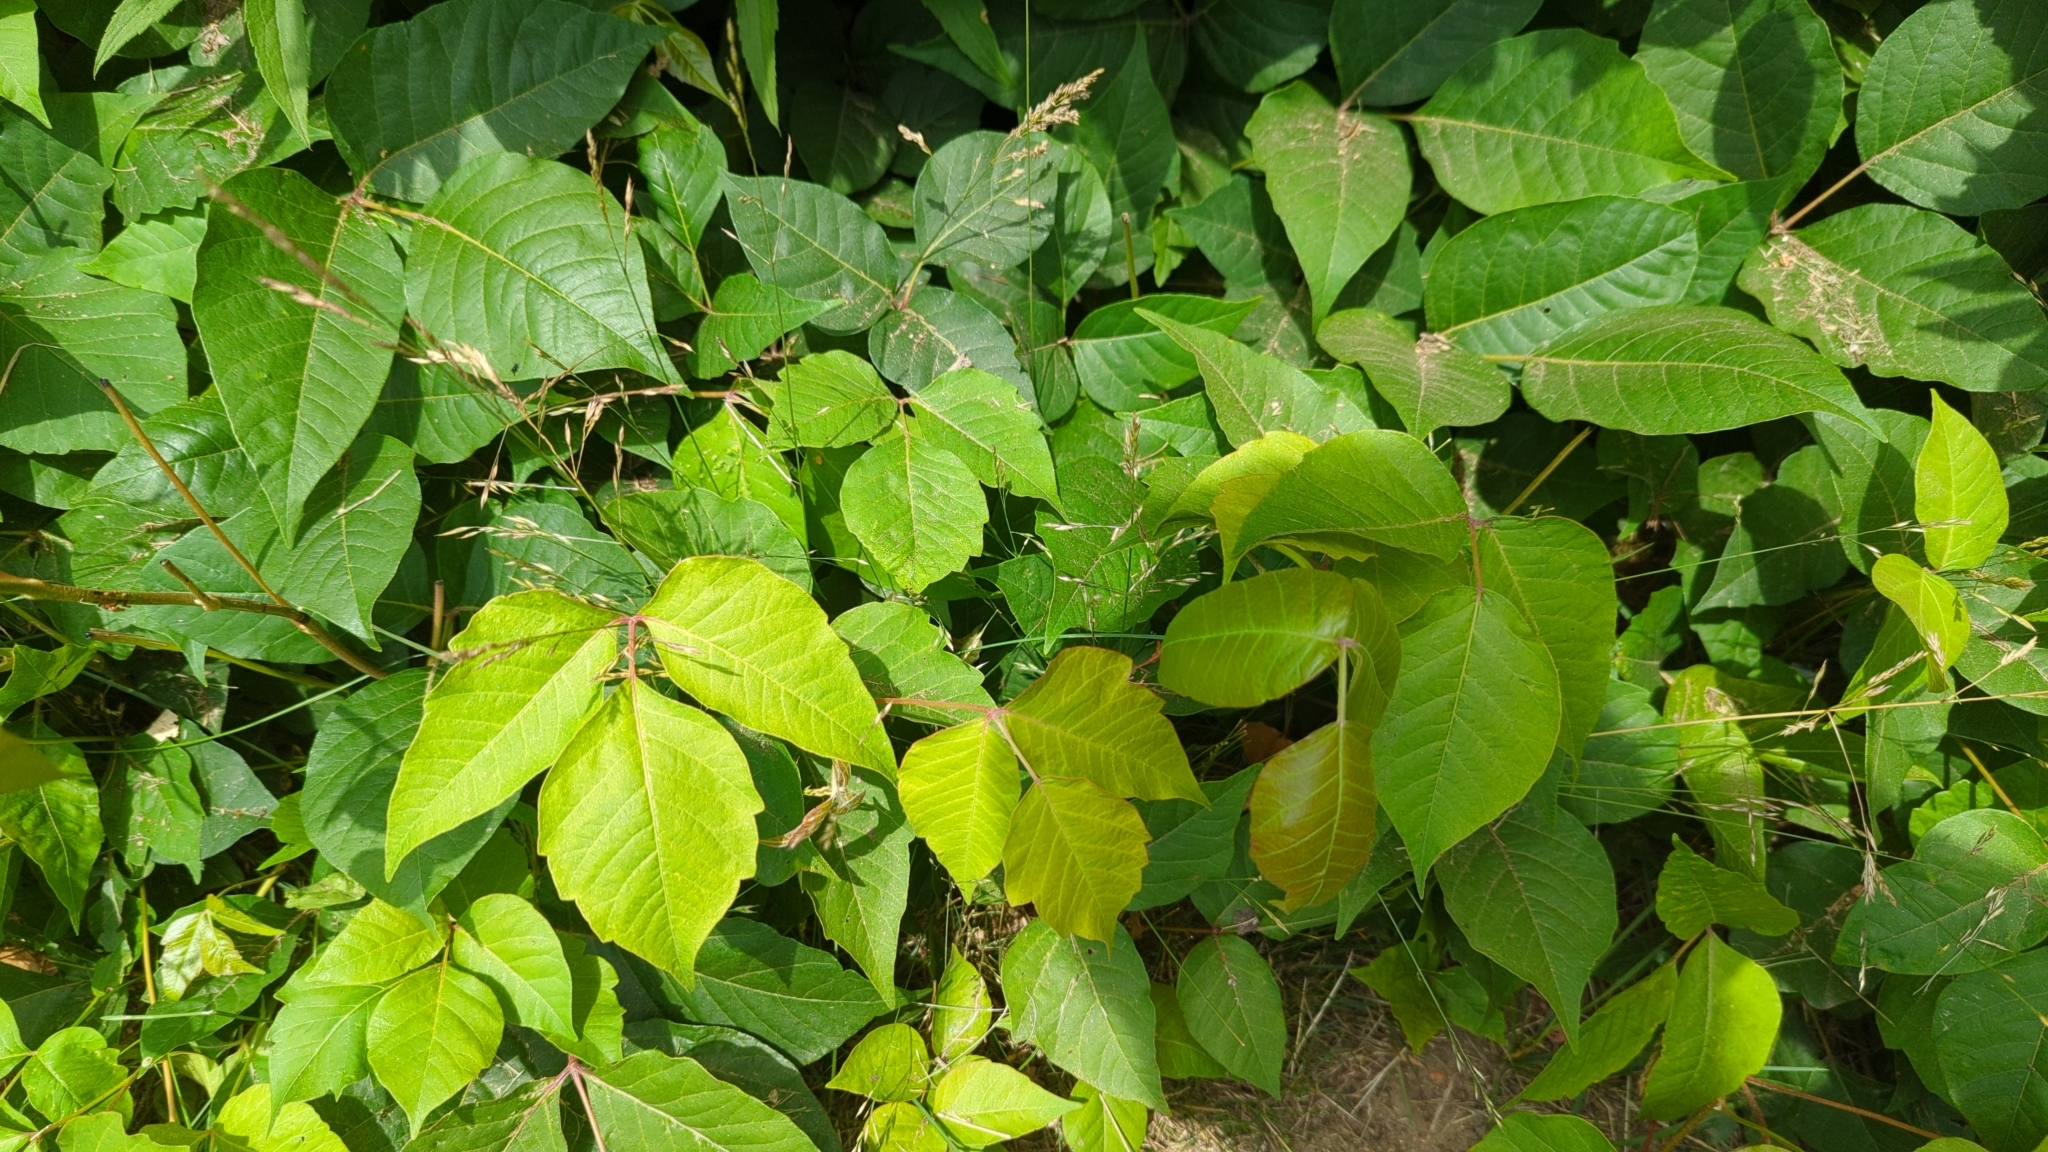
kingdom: Plantae
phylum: Tracheophyta
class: Magnoliopsida
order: Sapindales
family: Anacardiaceae
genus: Toxicodendron
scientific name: Toxicodendron radicans
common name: Poison ivy
